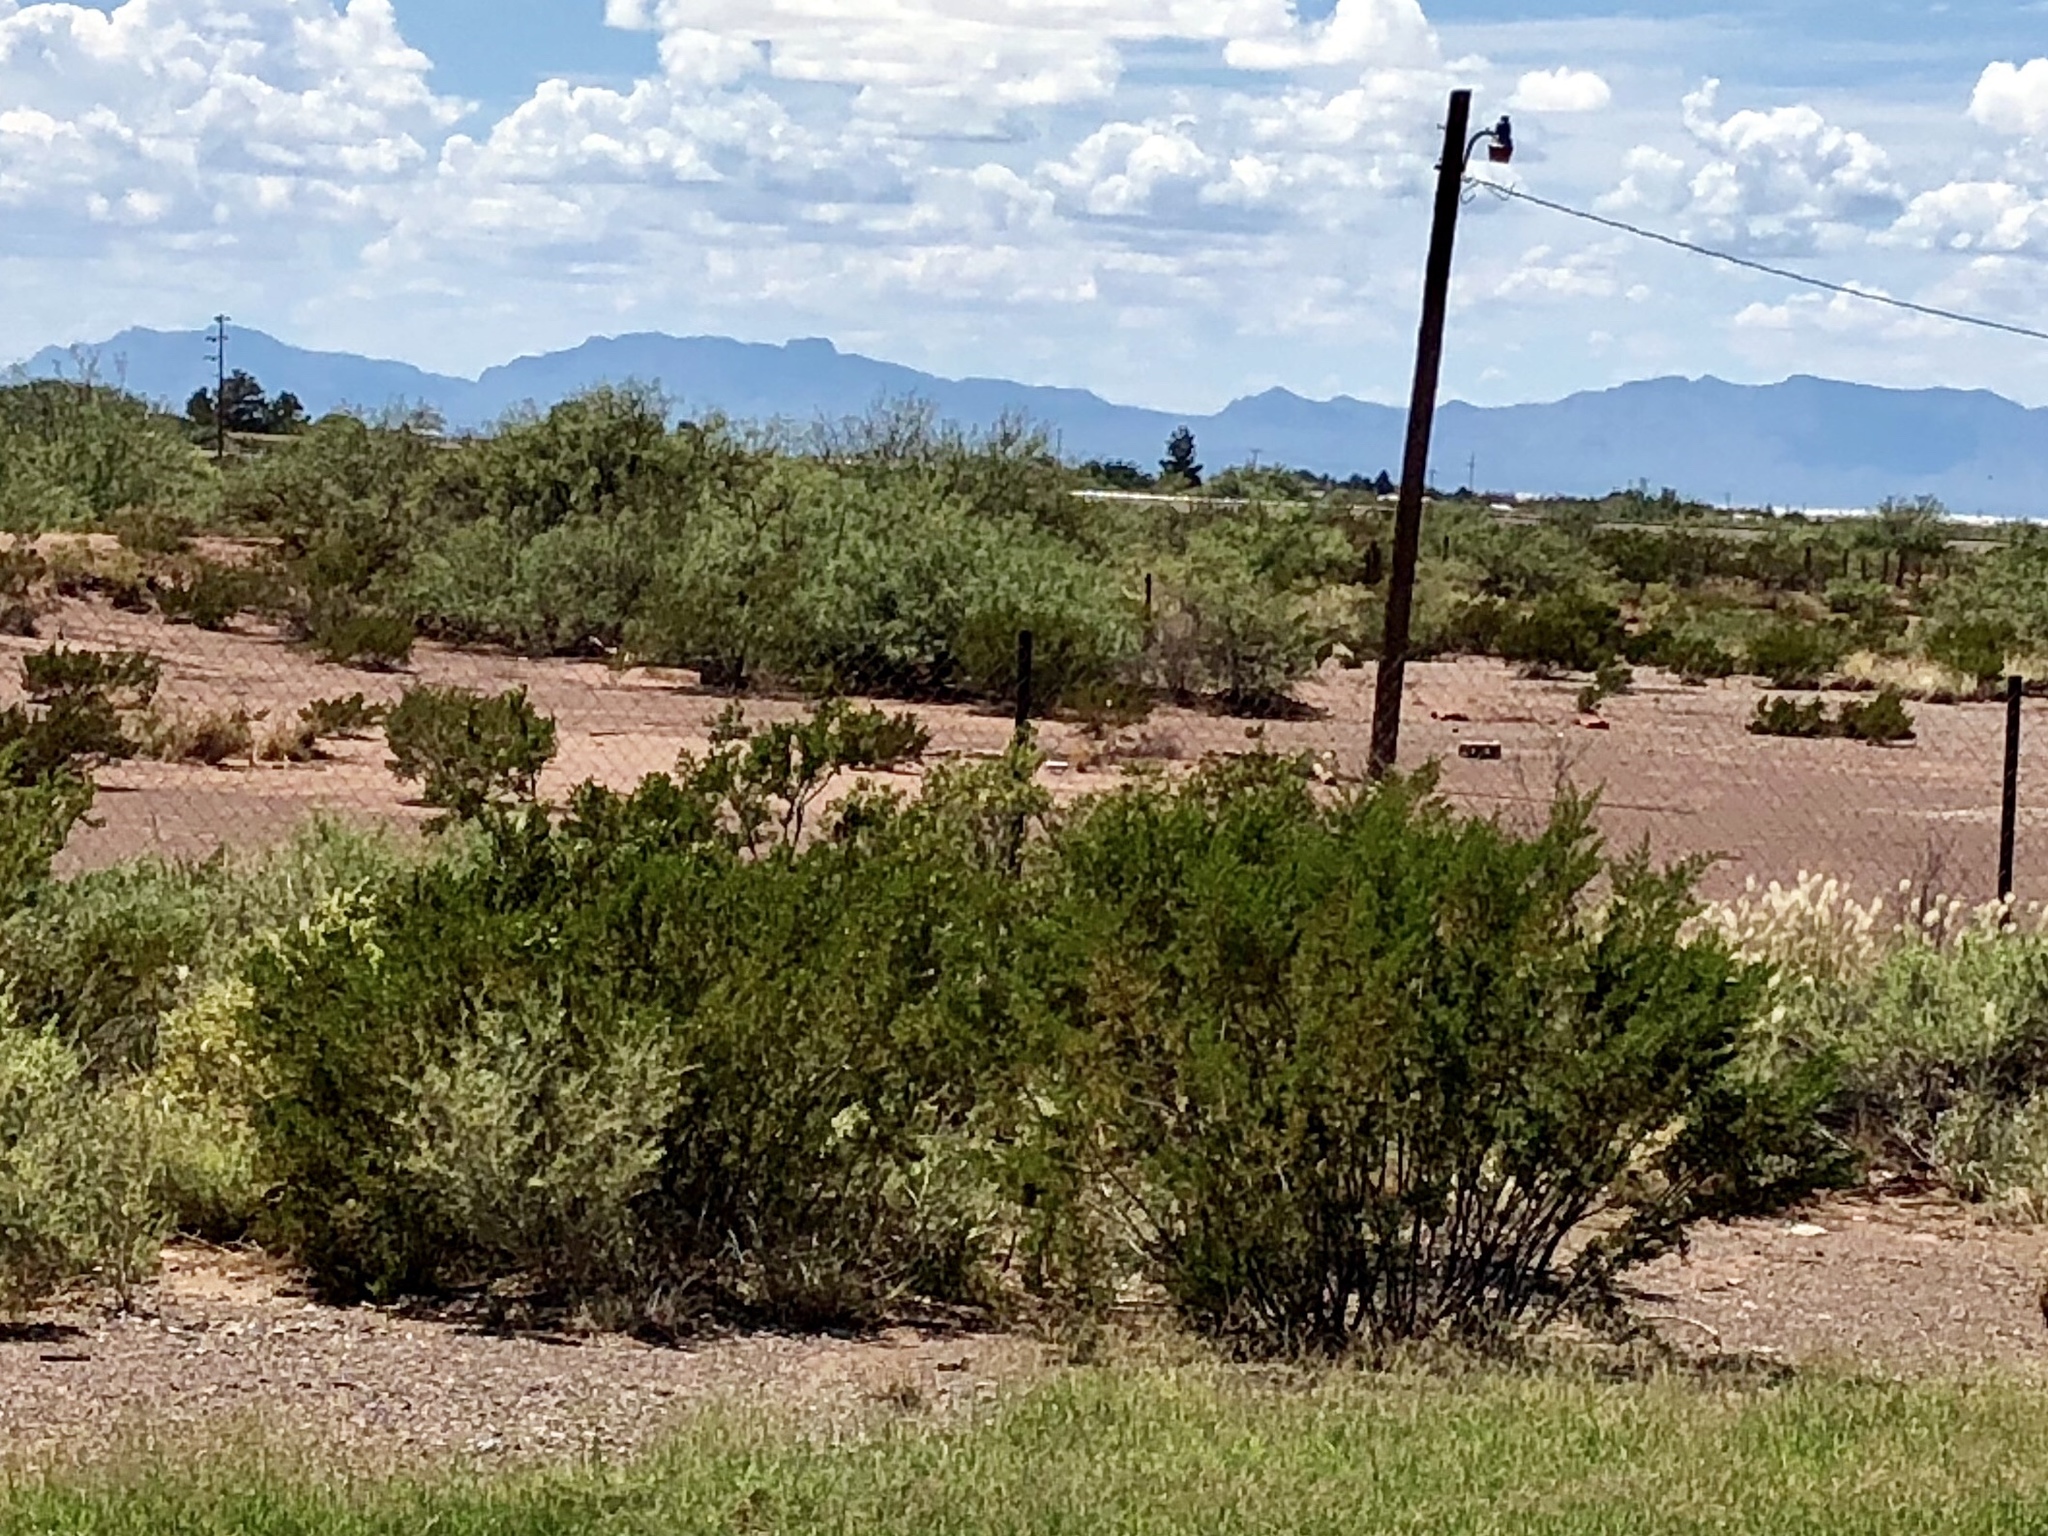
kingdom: Plantae
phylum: Tracheophyta
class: Magnoliopsida
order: Zygophyllales
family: Zygophyllaceae
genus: Larrea
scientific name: Larrea tridentata
